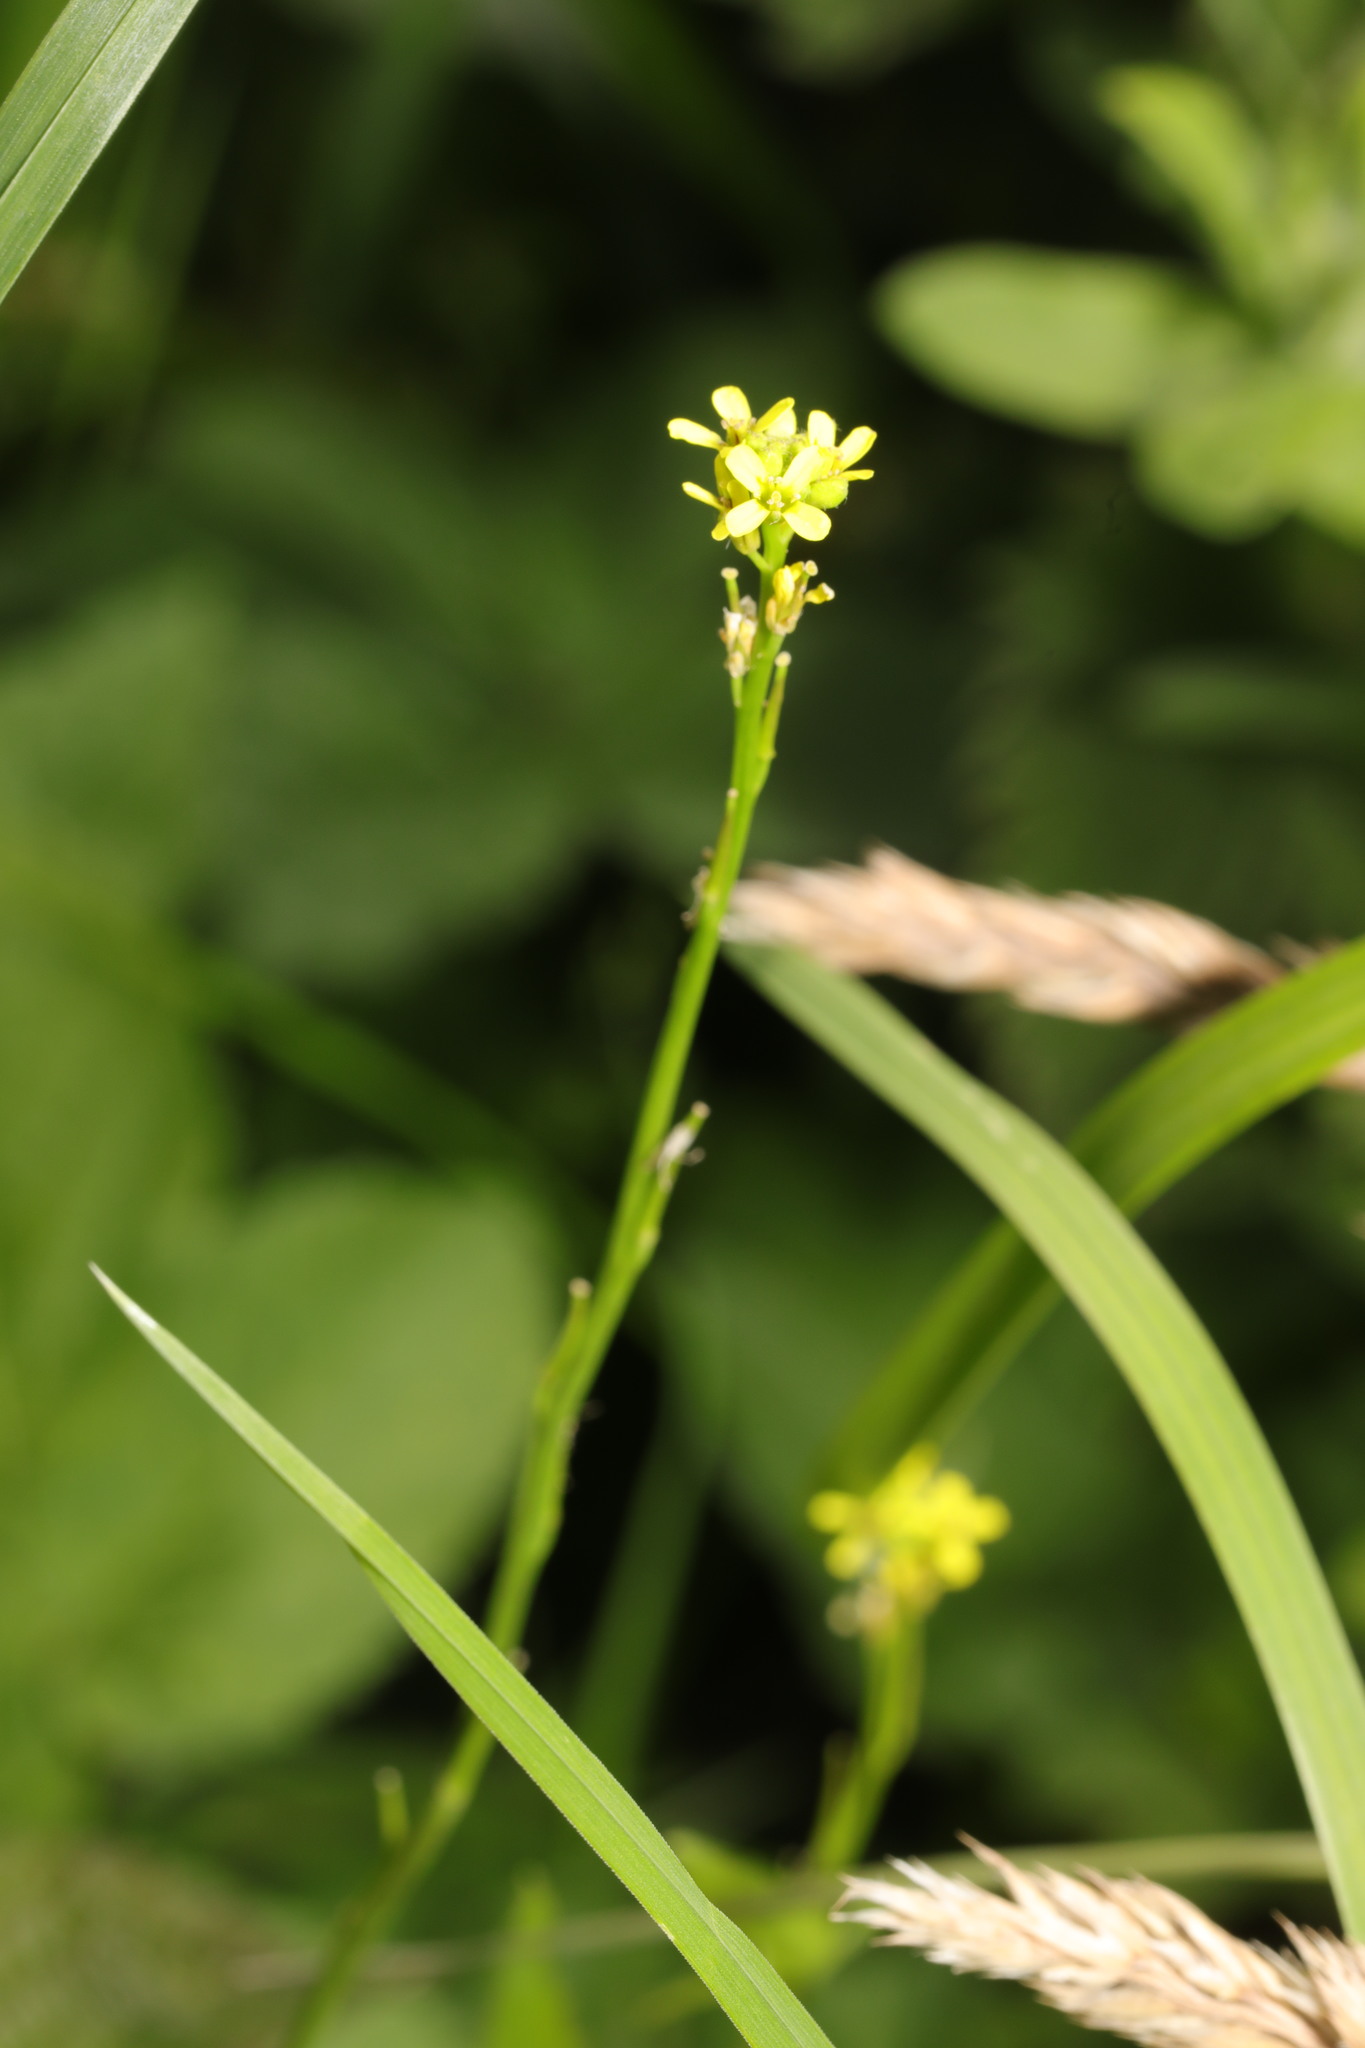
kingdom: Plantae
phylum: Tracheophyta
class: Magnoliopsida
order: Brassicales
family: Brassicaceae
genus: Sisymbrium
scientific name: Sisymbrium officinale
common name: Hedge mustard
